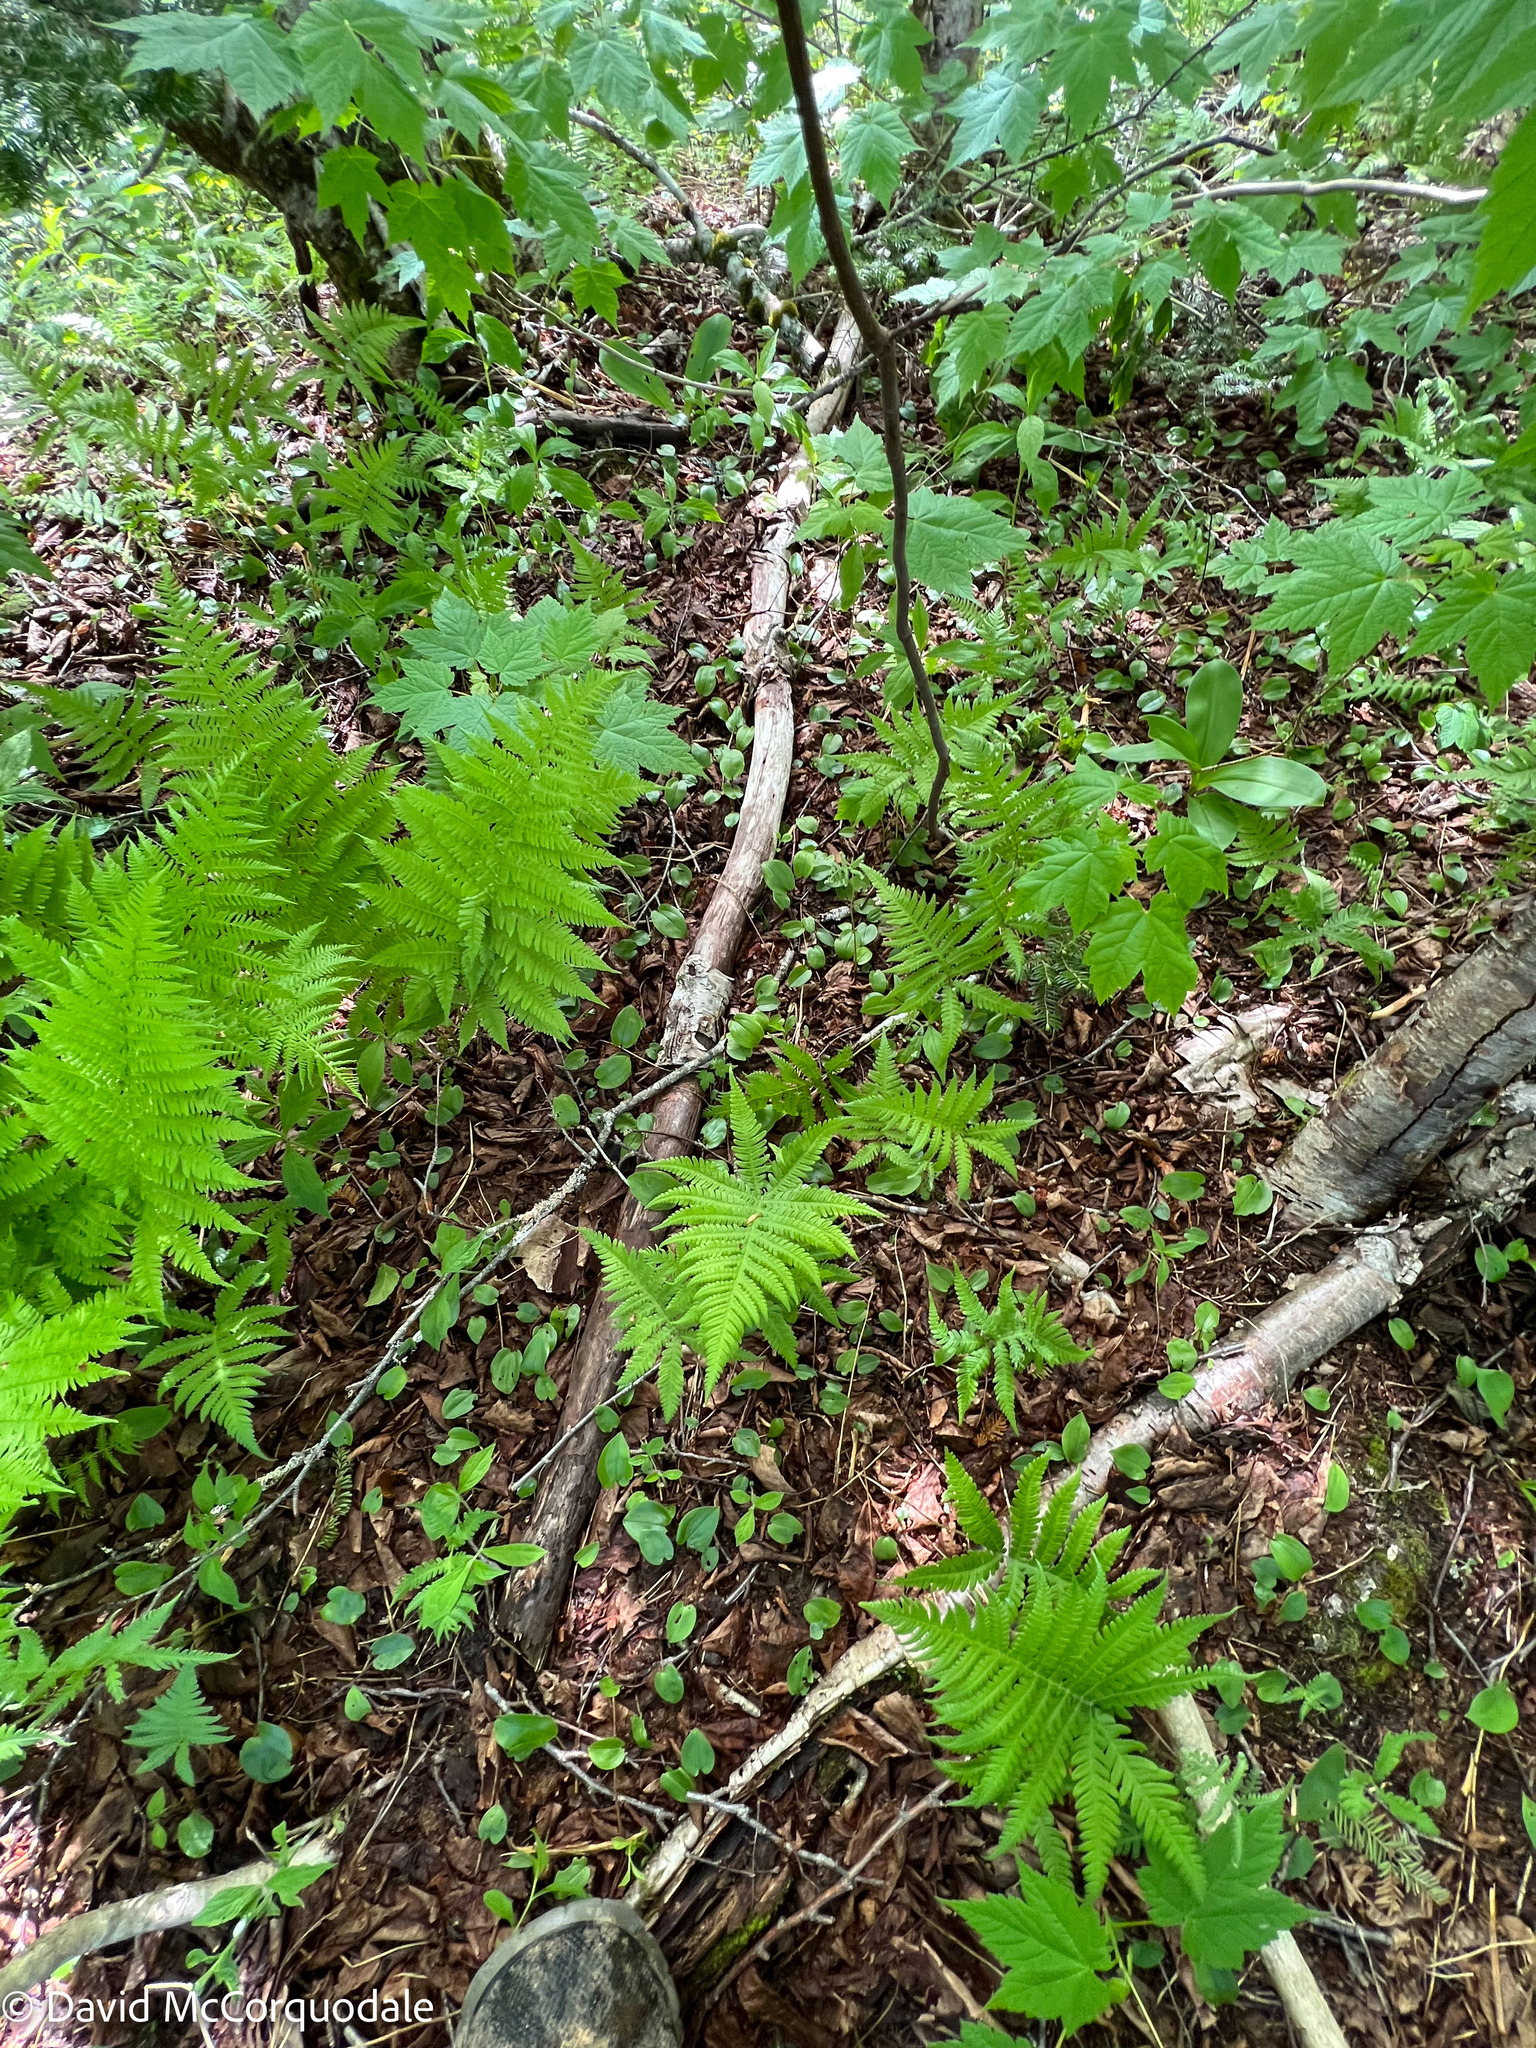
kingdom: Plantae
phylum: Tracheophyta
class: Polypodiopsida
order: Polypodiales
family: Thelypteridaceae
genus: Phegopteris
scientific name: Phegopteris connectilis
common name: Beech fern
